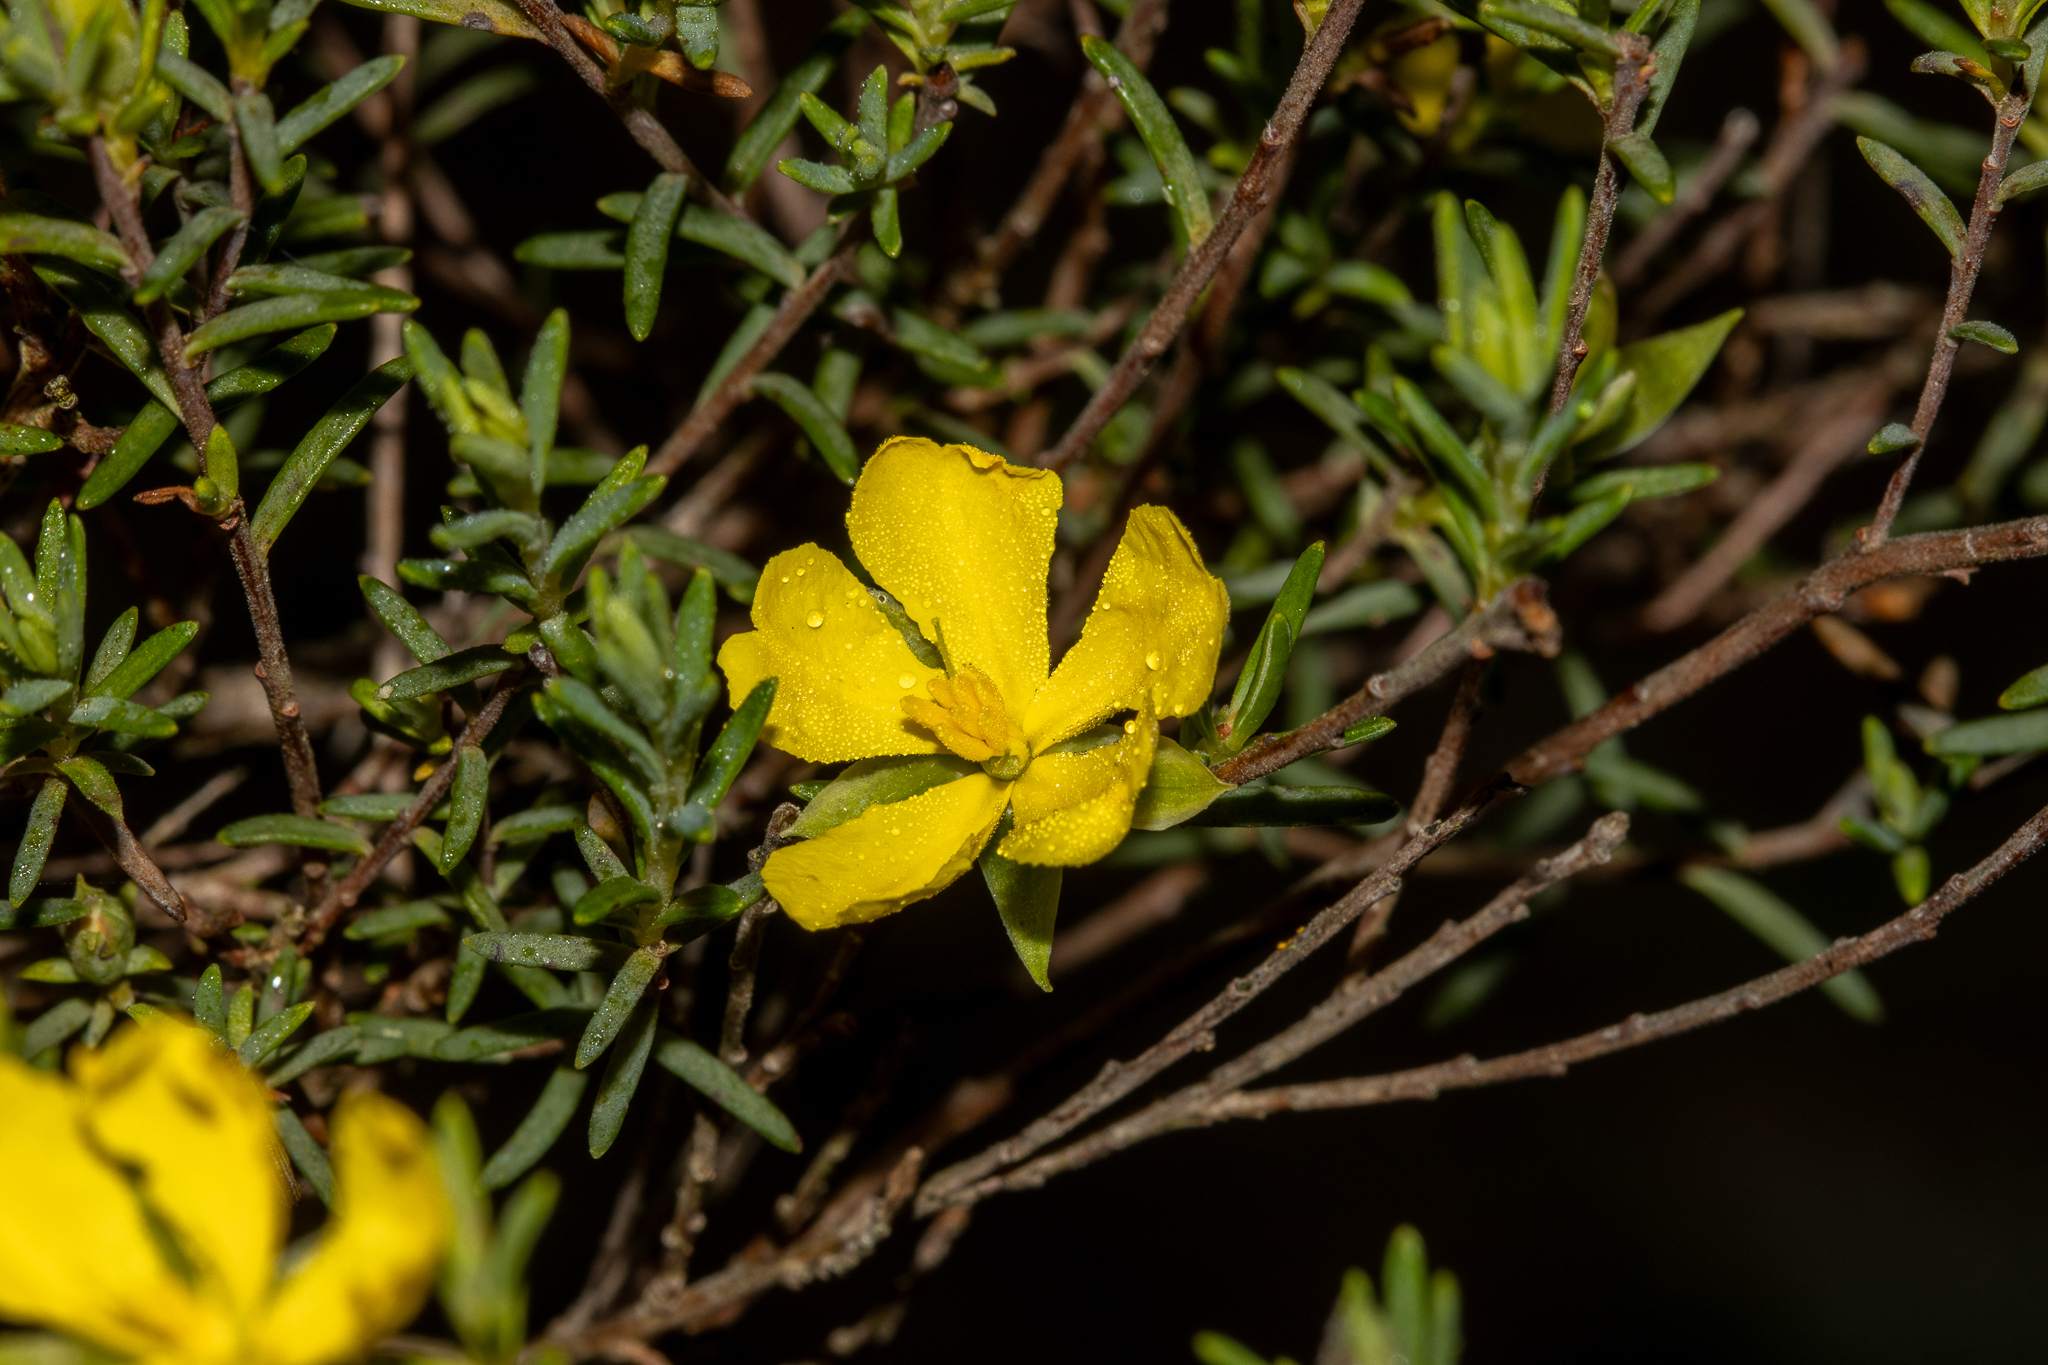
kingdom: Plantae
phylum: Tracheophyta
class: Magnoliopsida
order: Dilleniales
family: Dilleniaceae
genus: Hibbertia
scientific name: Hibbertia devitata
